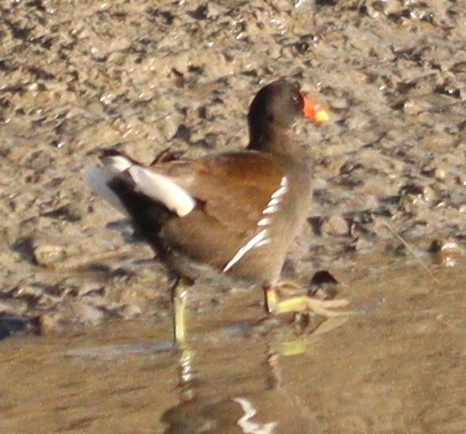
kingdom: Animalia
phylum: Chordata
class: Aves
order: Gruiformes
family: Rallidae
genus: Gallinula
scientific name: Gallinula chloropus
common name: Common moorhen
